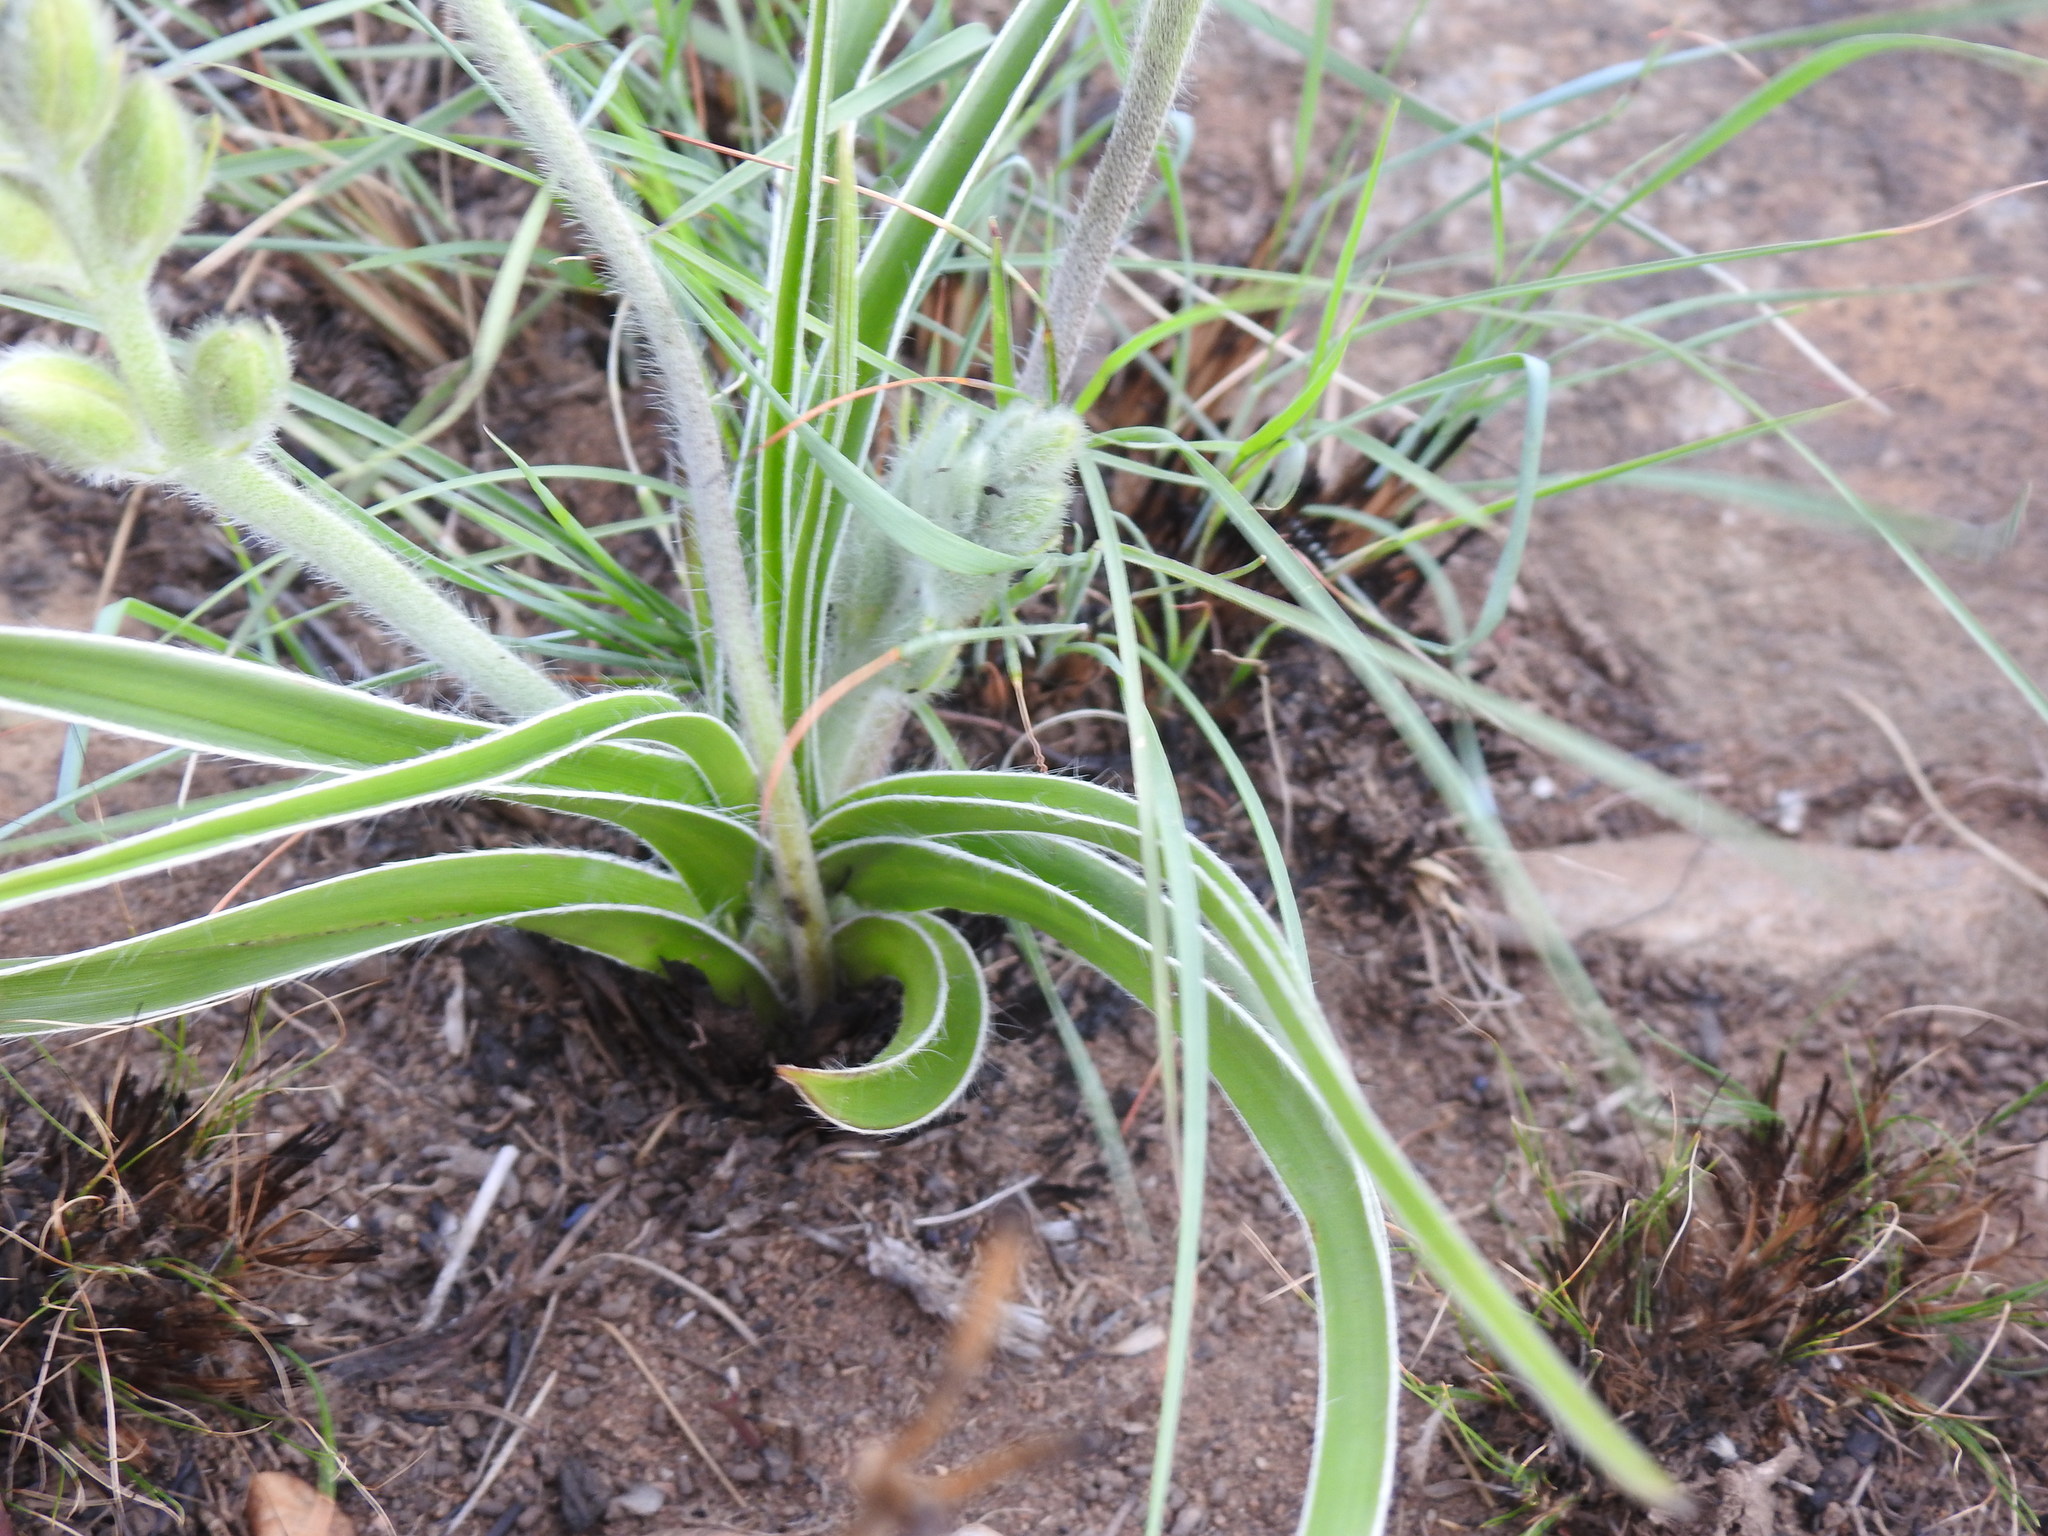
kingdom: Plantae
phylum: Tracheophyta
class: Liliopsida
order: Asparagales
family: Hypoxidaceae
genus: Hypoxis
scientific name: Hypoxis obtusa
